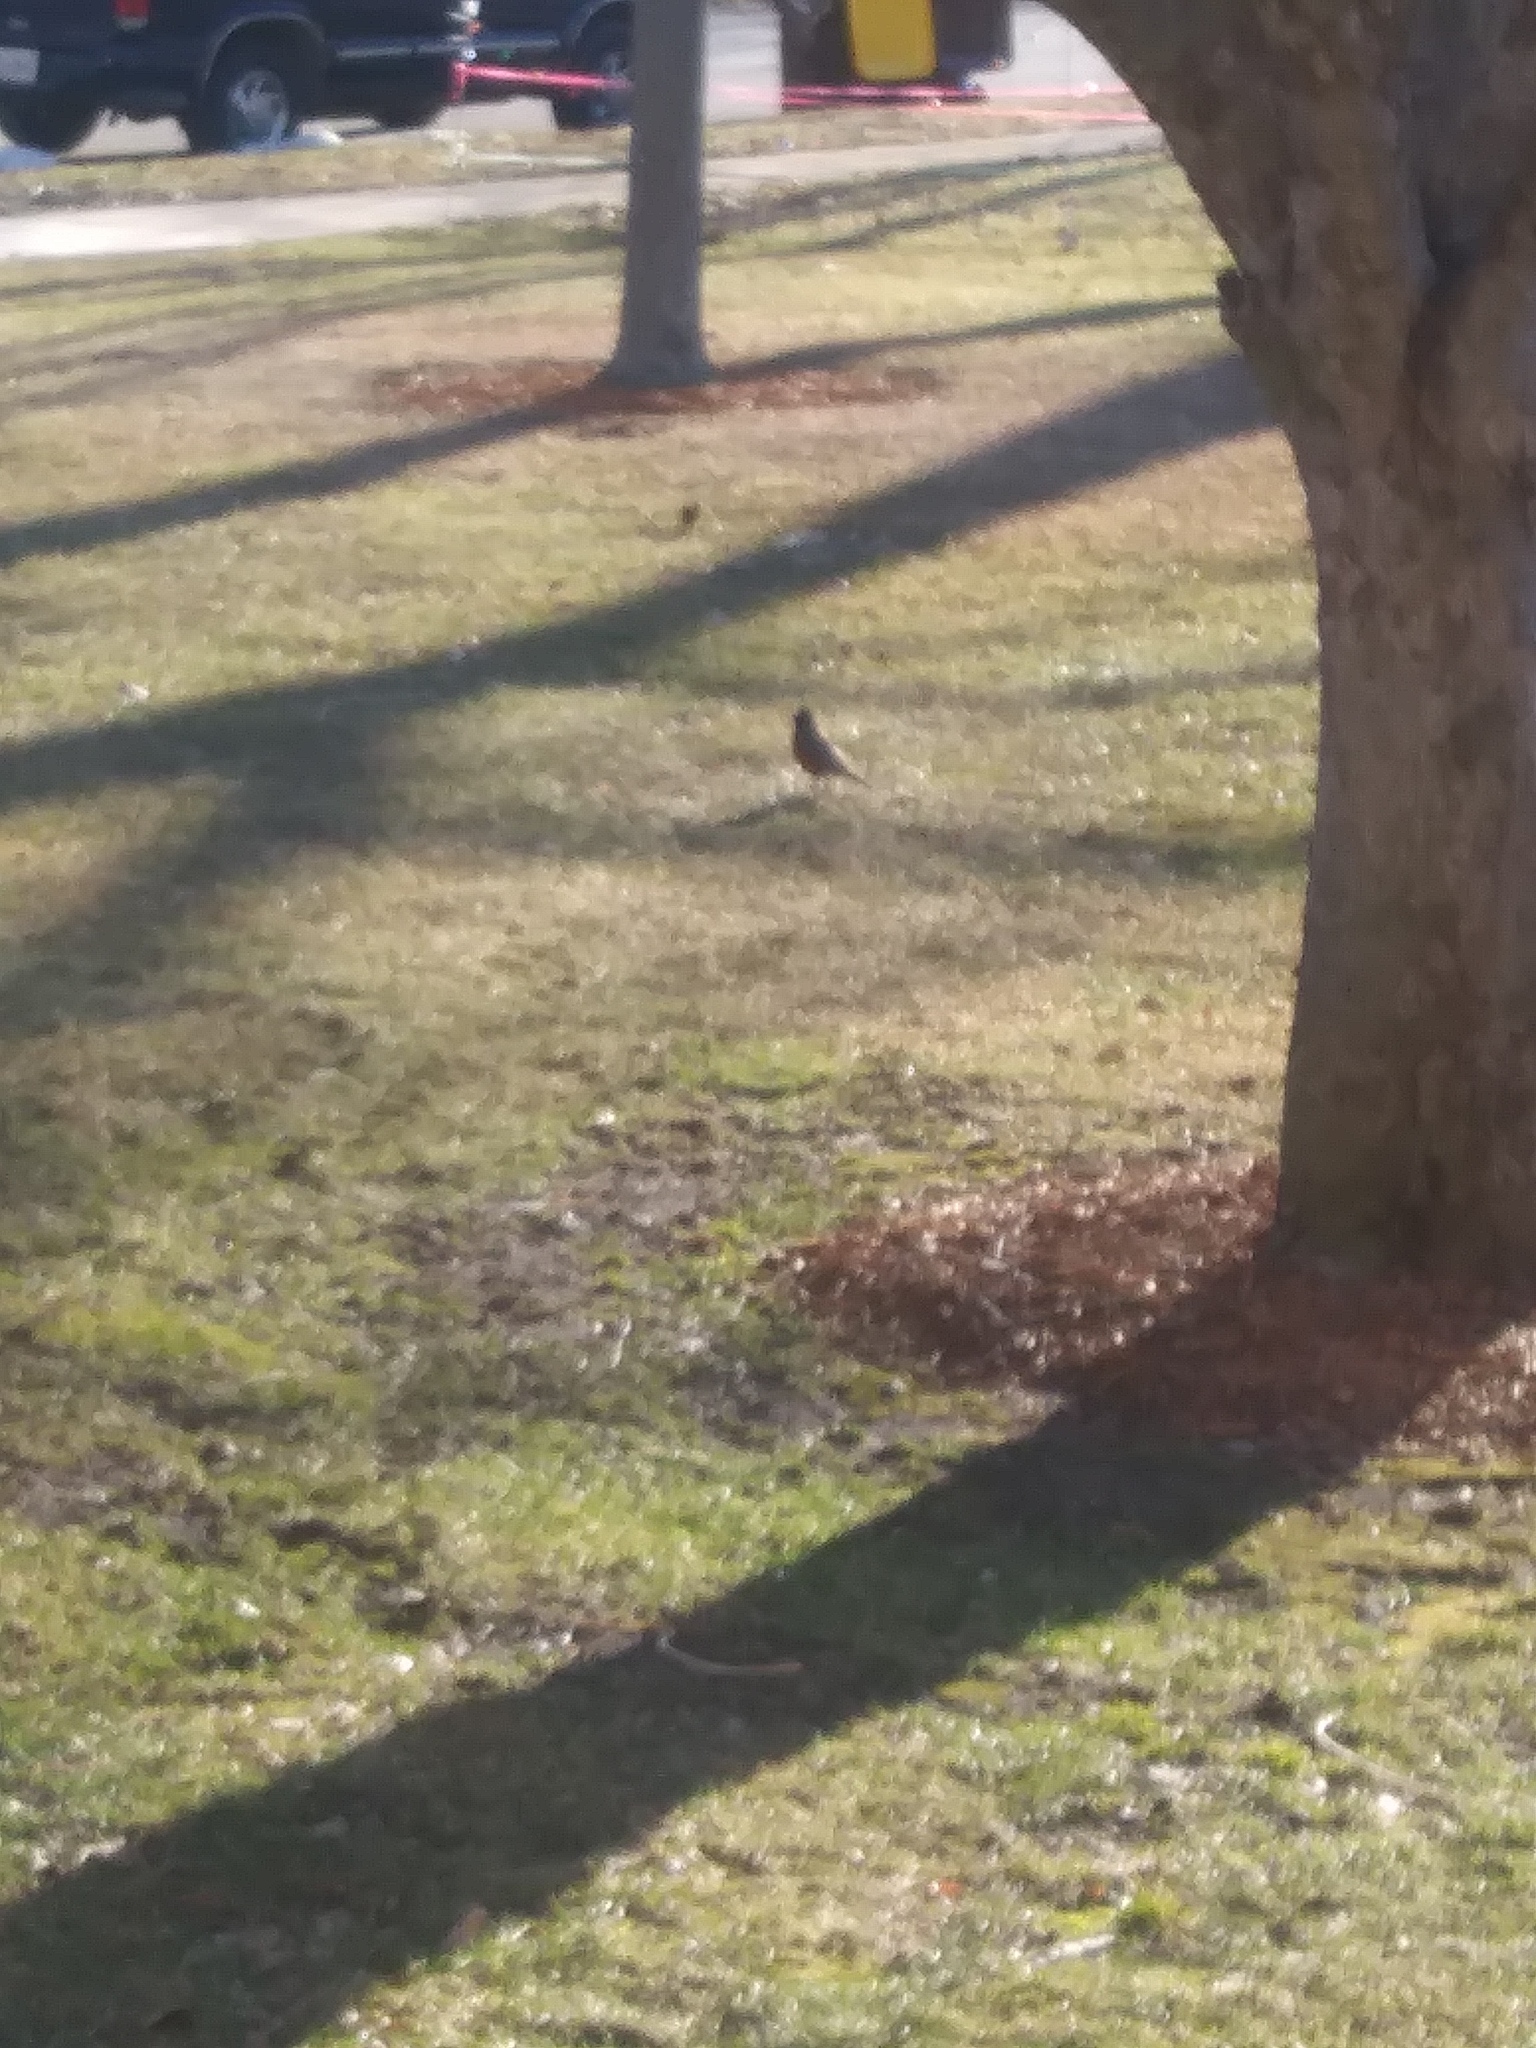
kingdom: Animalia
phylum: Chordata
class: Aves
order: Passeriformes
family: Turdidae
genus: Turdus
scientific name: Turdus migratorius
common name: American robin
